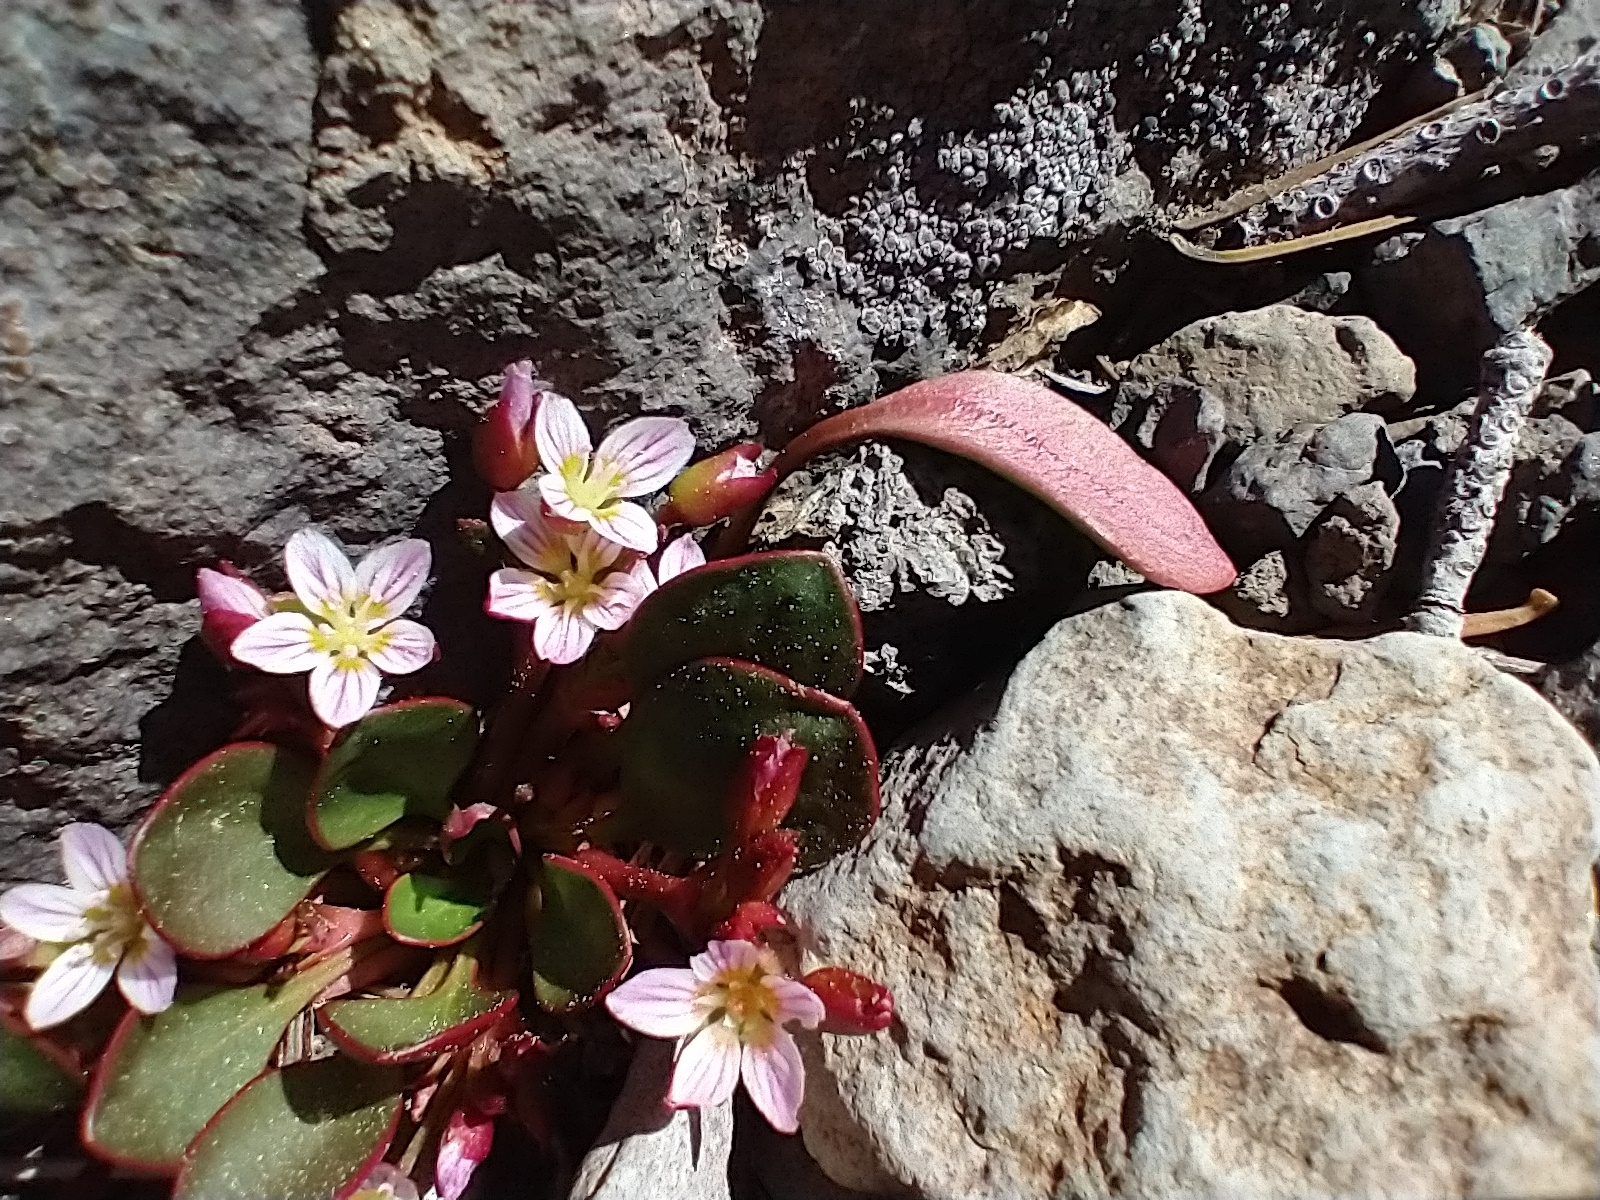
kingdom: Plantae
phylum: Tracheophyta
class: Magnoliopsida
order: Caryophyllales
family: Montiaceae
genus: Claytonia
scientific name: Claytonia megarhiza
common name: Alpine spring beauty
